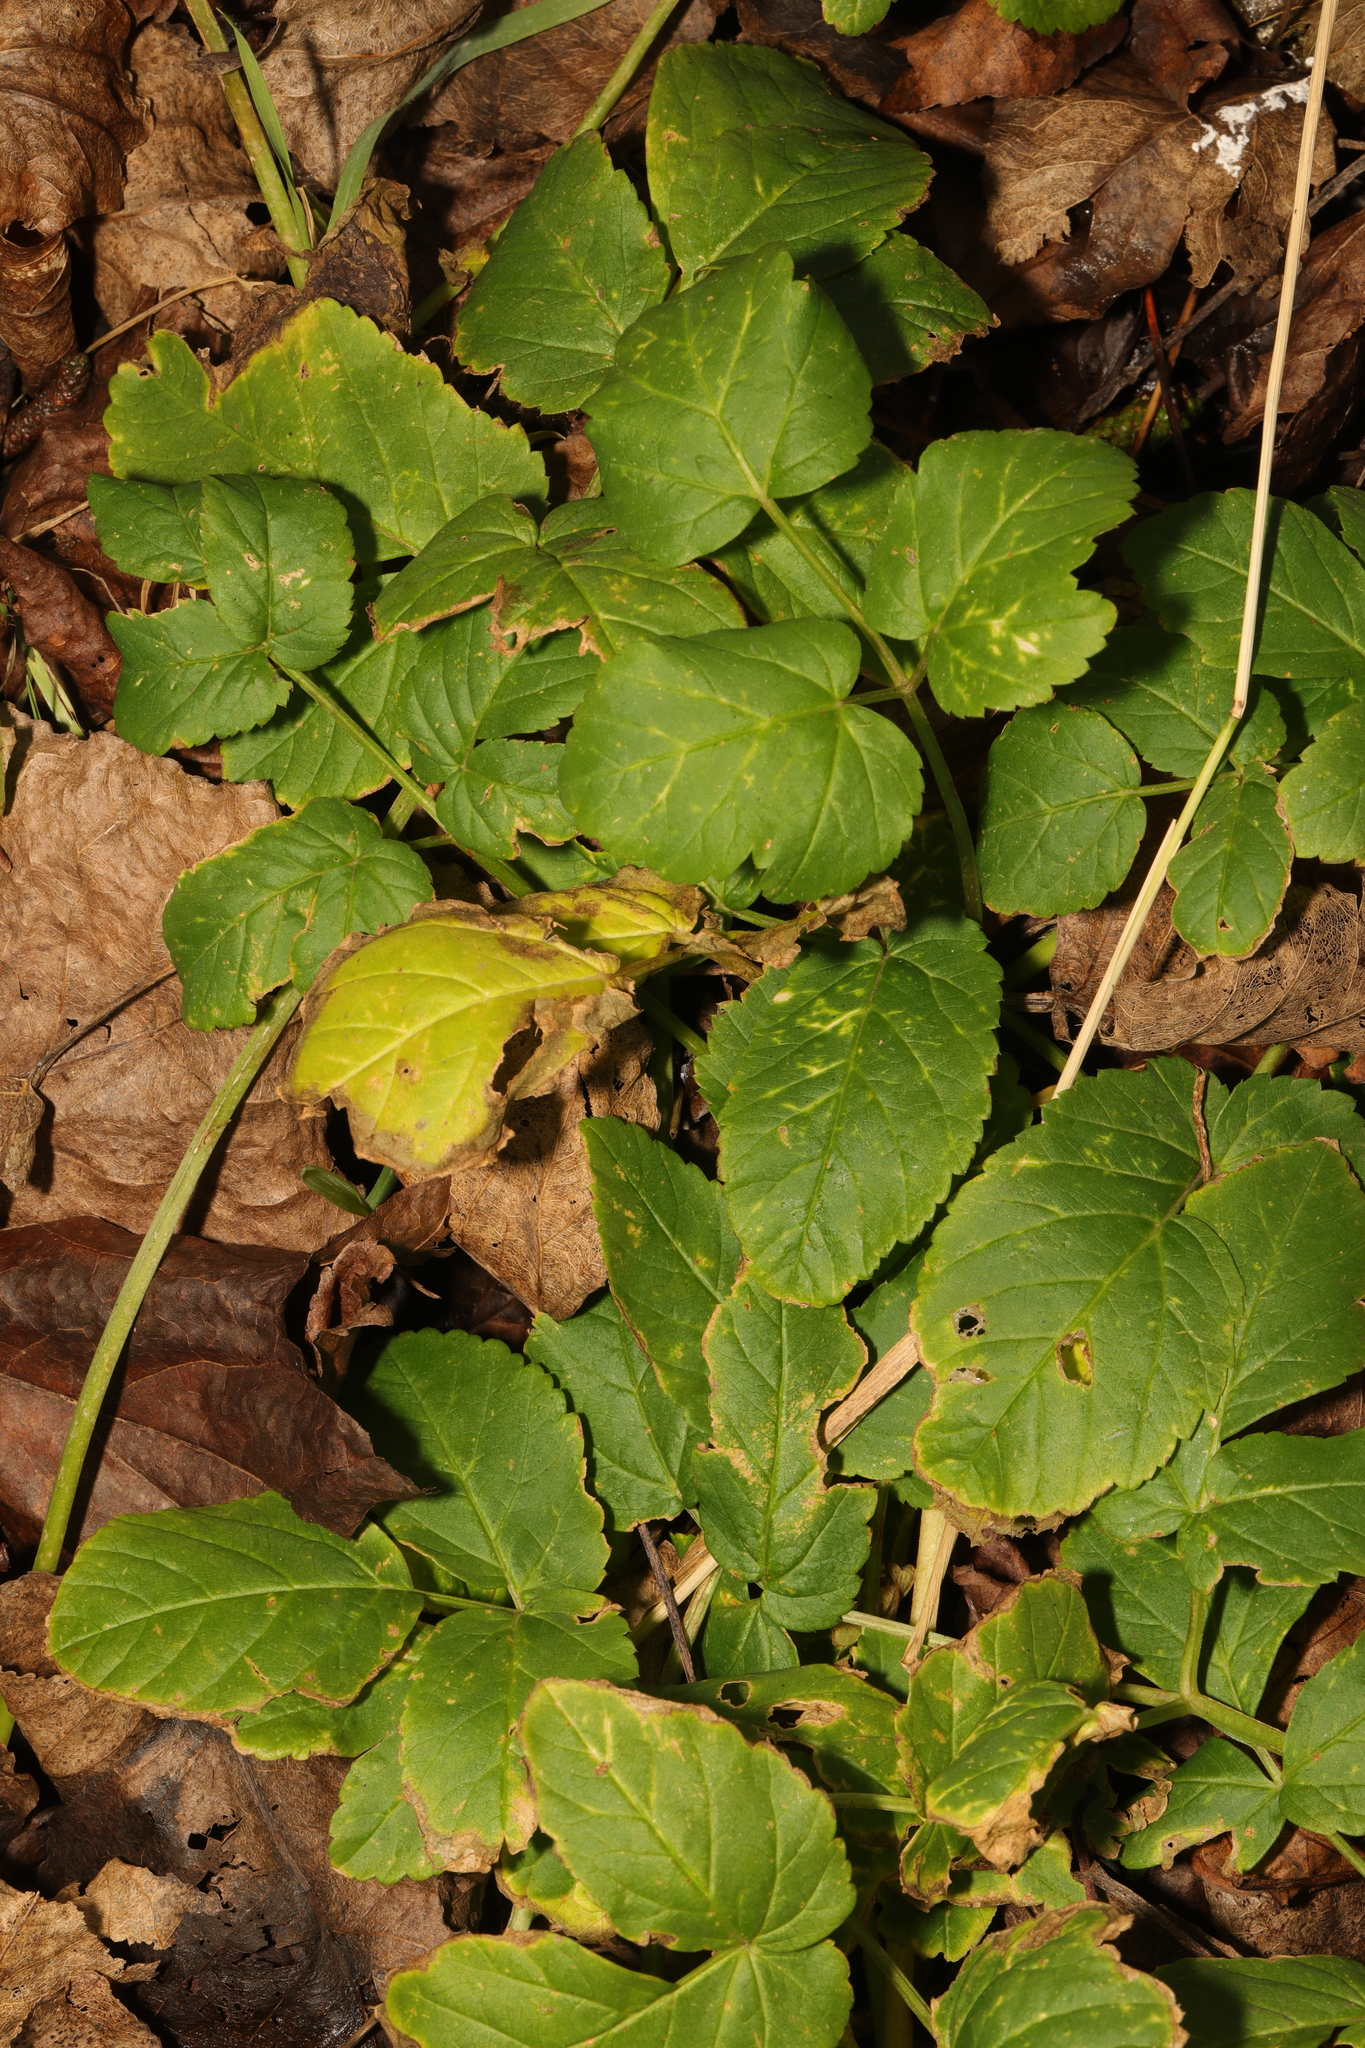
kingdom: Plantae
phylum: Tracheophyta
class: Magnoliopsida
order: Apiales
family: Apiaceae
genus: Aegopodium
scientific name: Aegopodium podagraria
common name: Ground-elder
